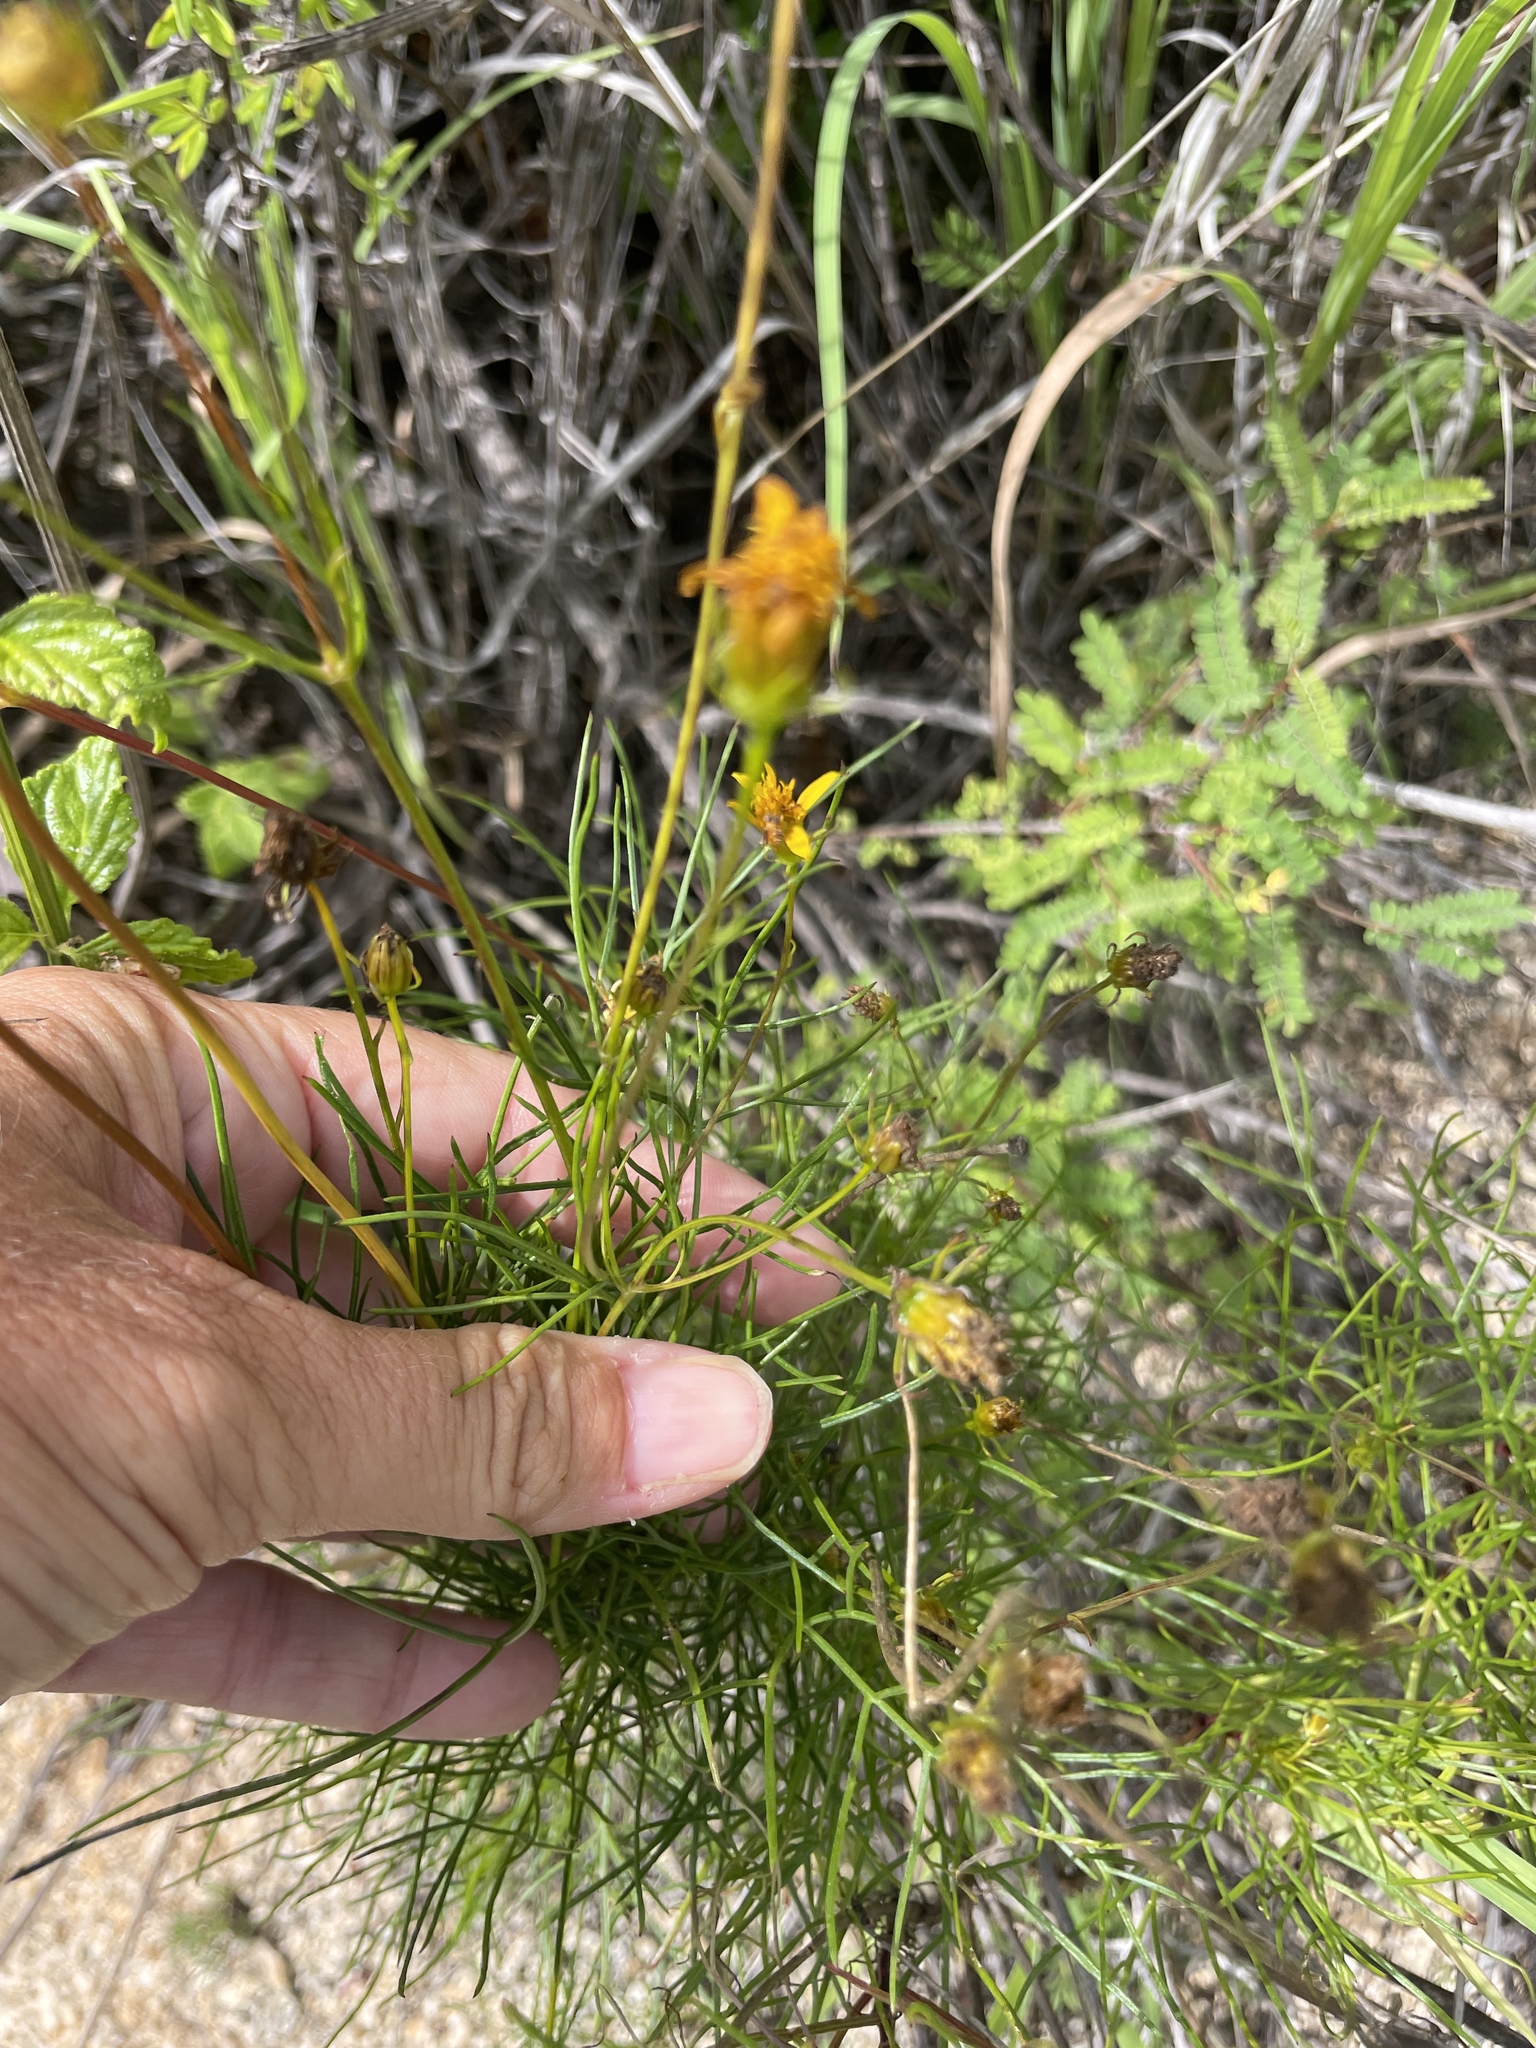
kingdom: Plantae
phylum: Tracheophyta
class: Magnoliopsida
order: Asterales
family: Asteraceae
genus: Bidens
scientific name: Bidens nudata
